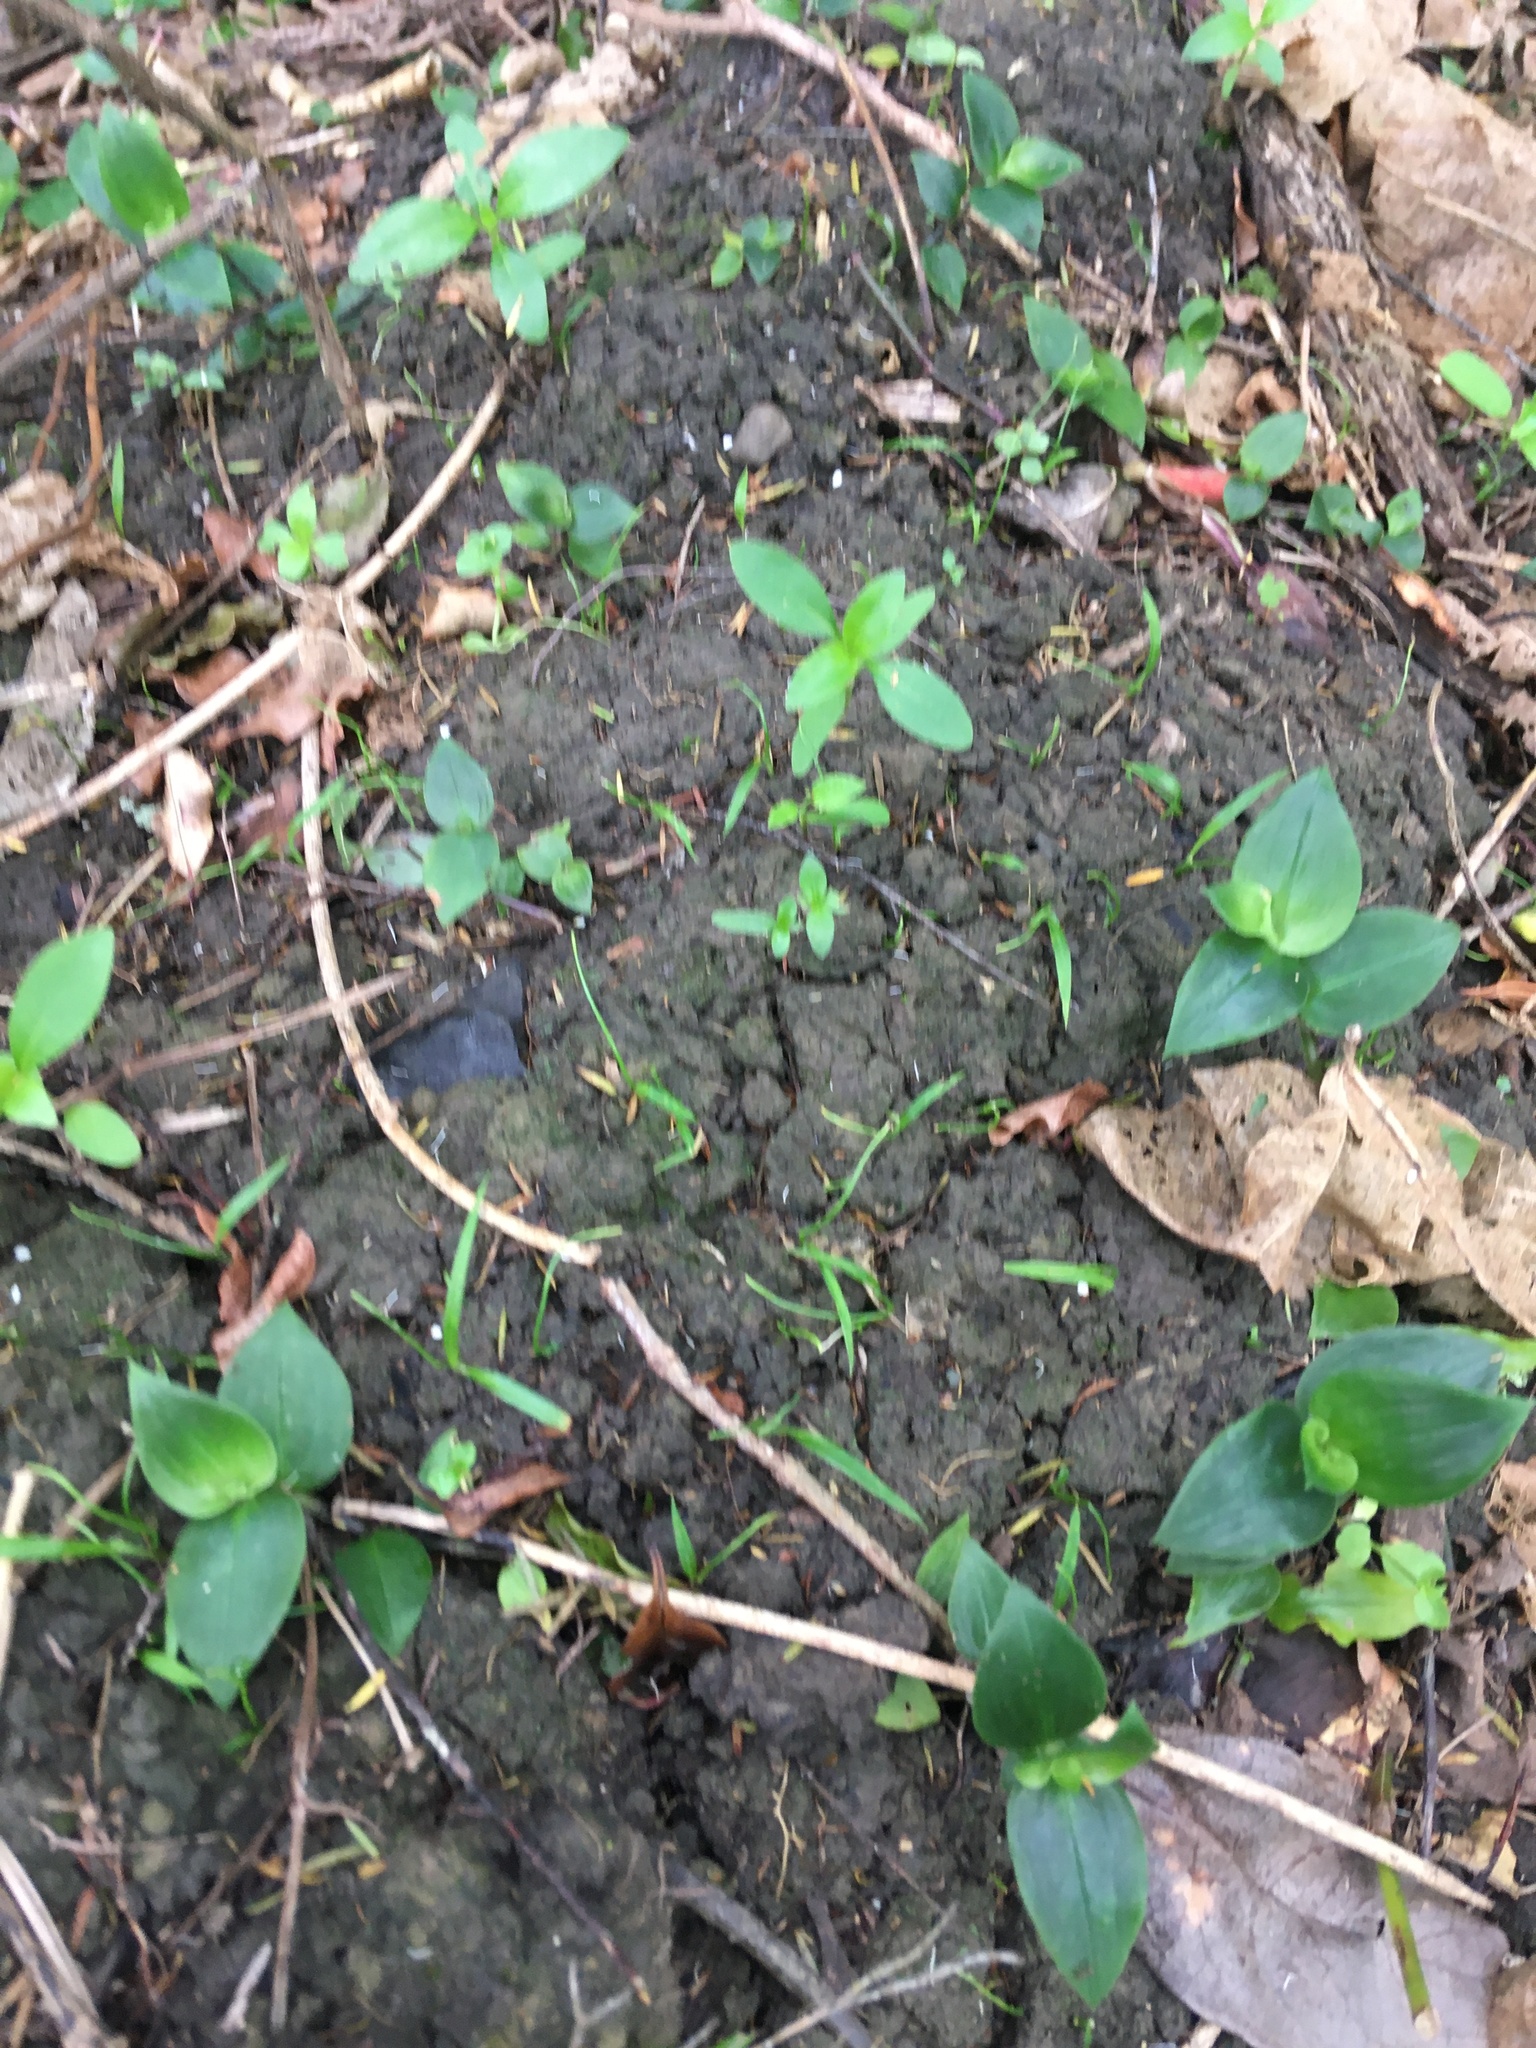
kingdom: Plantae
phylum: Tracheophyta
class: Magnoliopsida
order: Gentianales
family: Rubiaceae
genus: Coprosma
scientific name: Coprosma robusta
